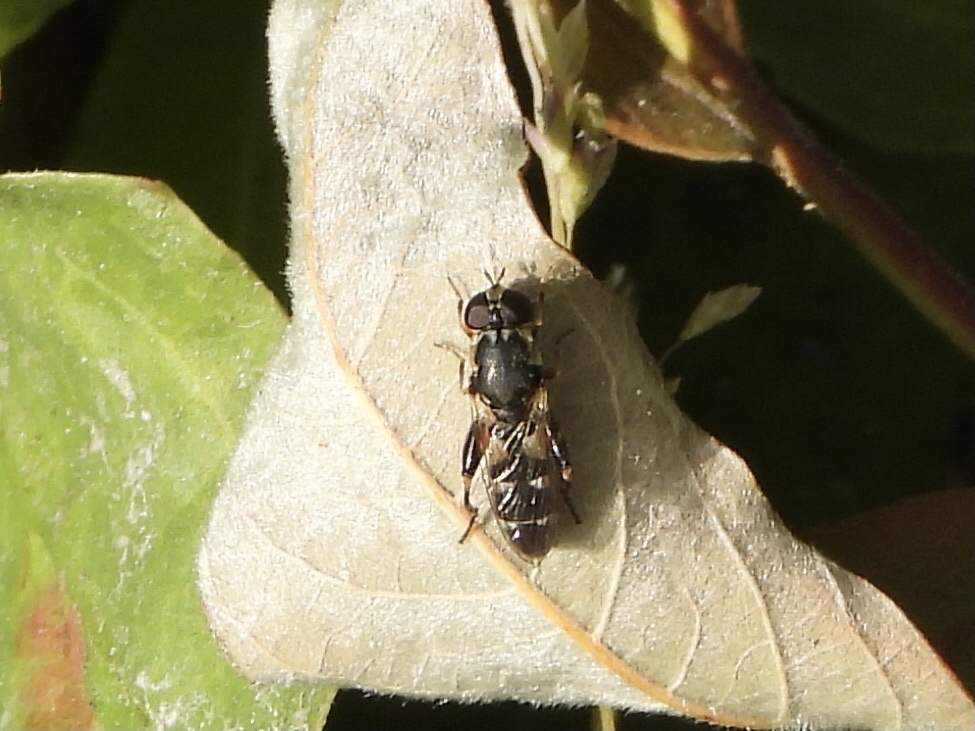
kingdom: Animalia
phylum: Arthropoda
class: Insecta
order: Diptera
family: Syrphidae
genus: Syritta
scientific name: Syritta pipiens
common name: Hover fly
